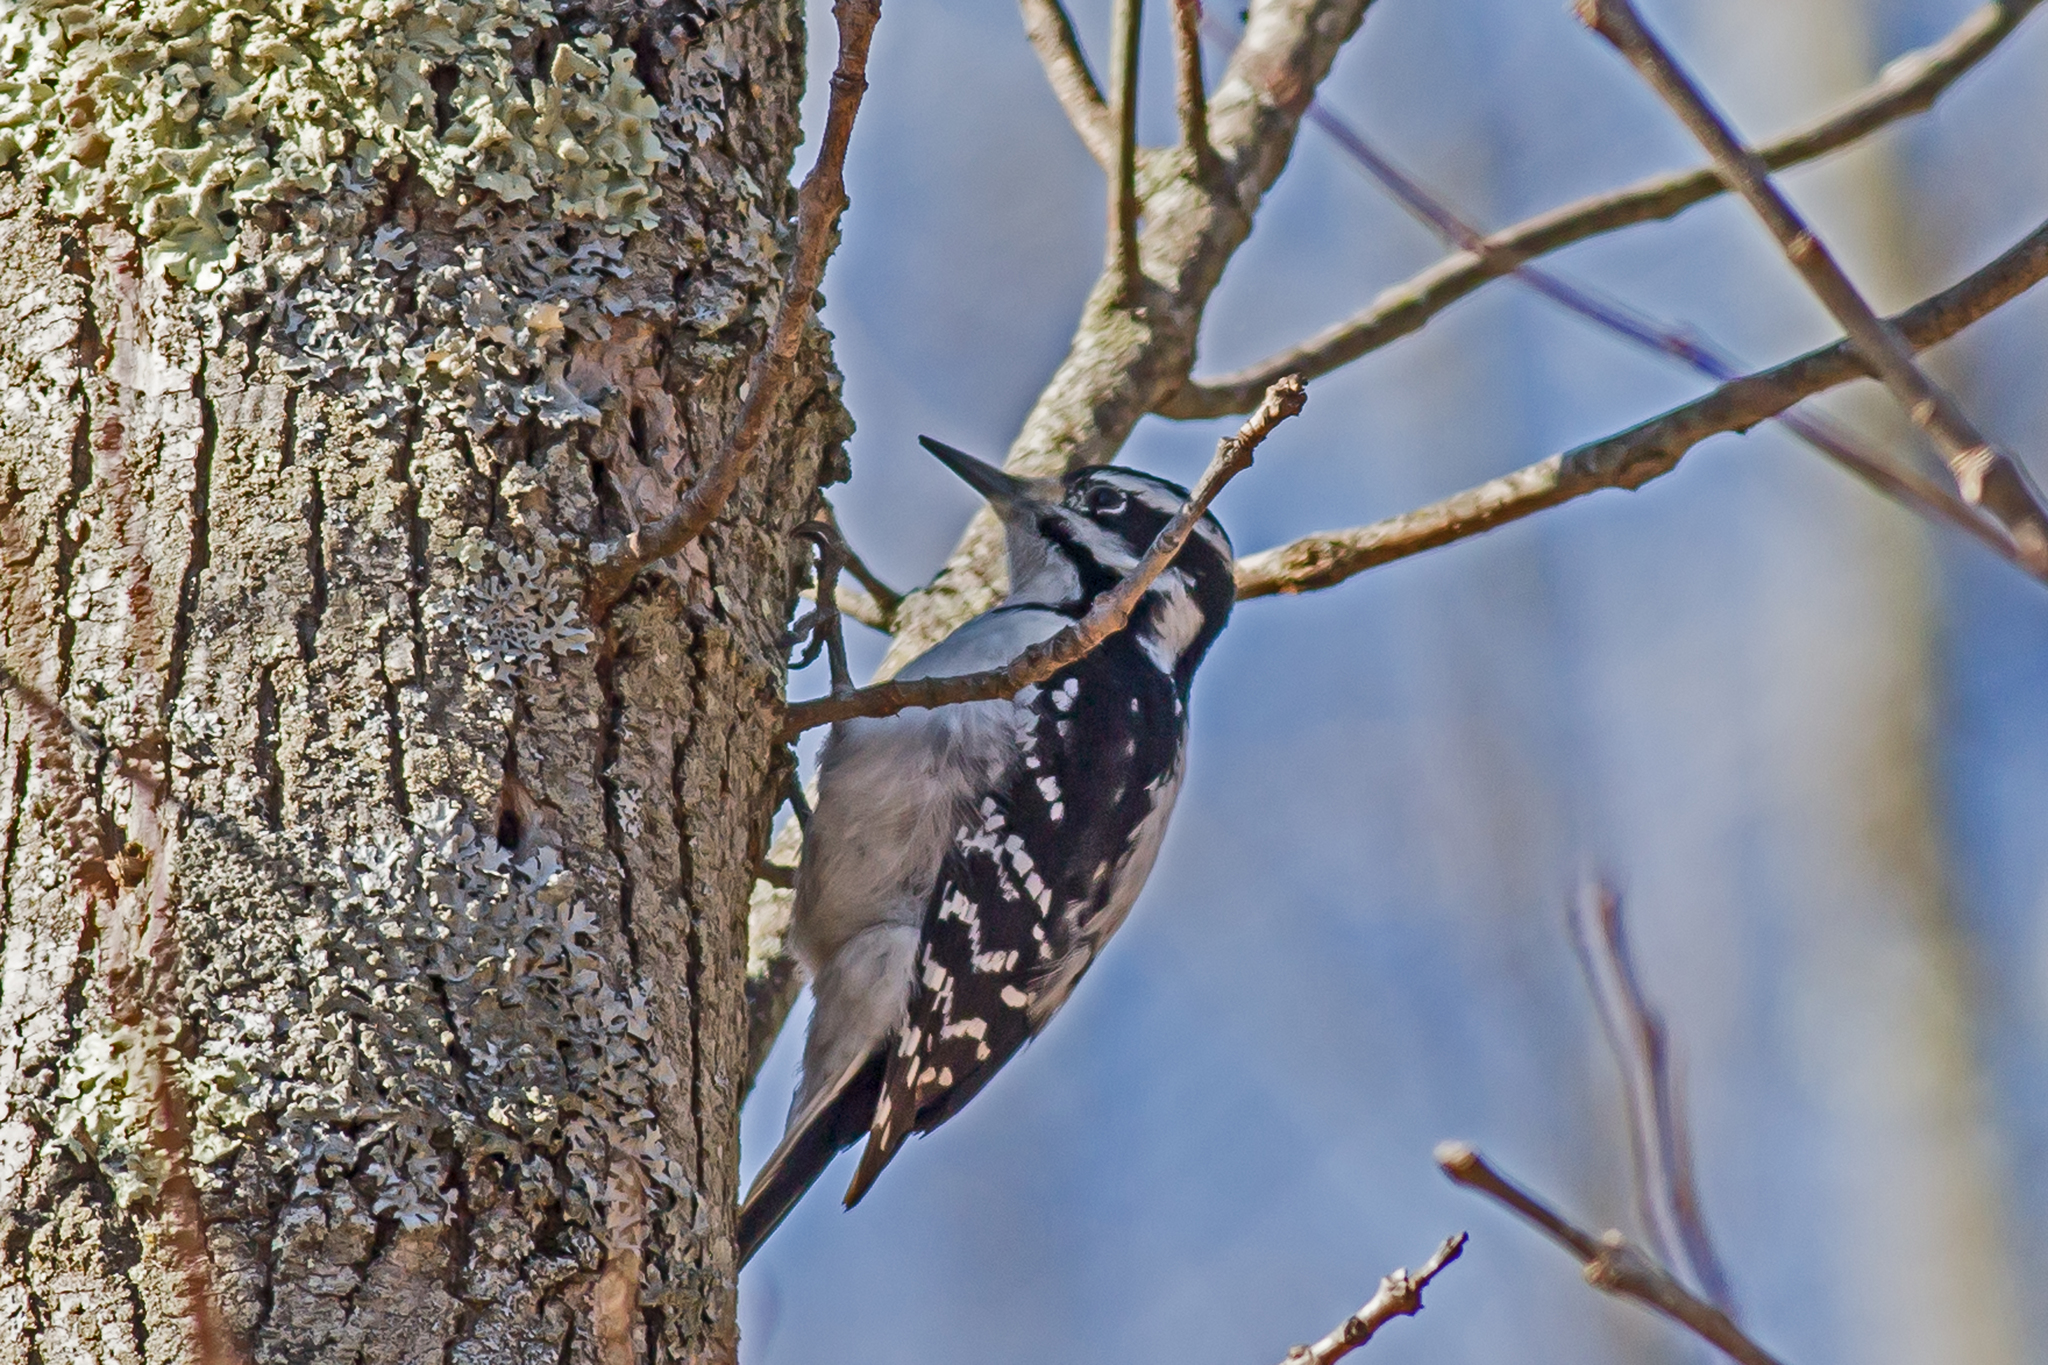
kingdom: Animalia
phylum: Chordata
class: Aves
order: Piciformes
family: Picidae
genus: Leuconotopicus
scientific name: Leuconotopicus villosus
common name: Hairy woodpecker
